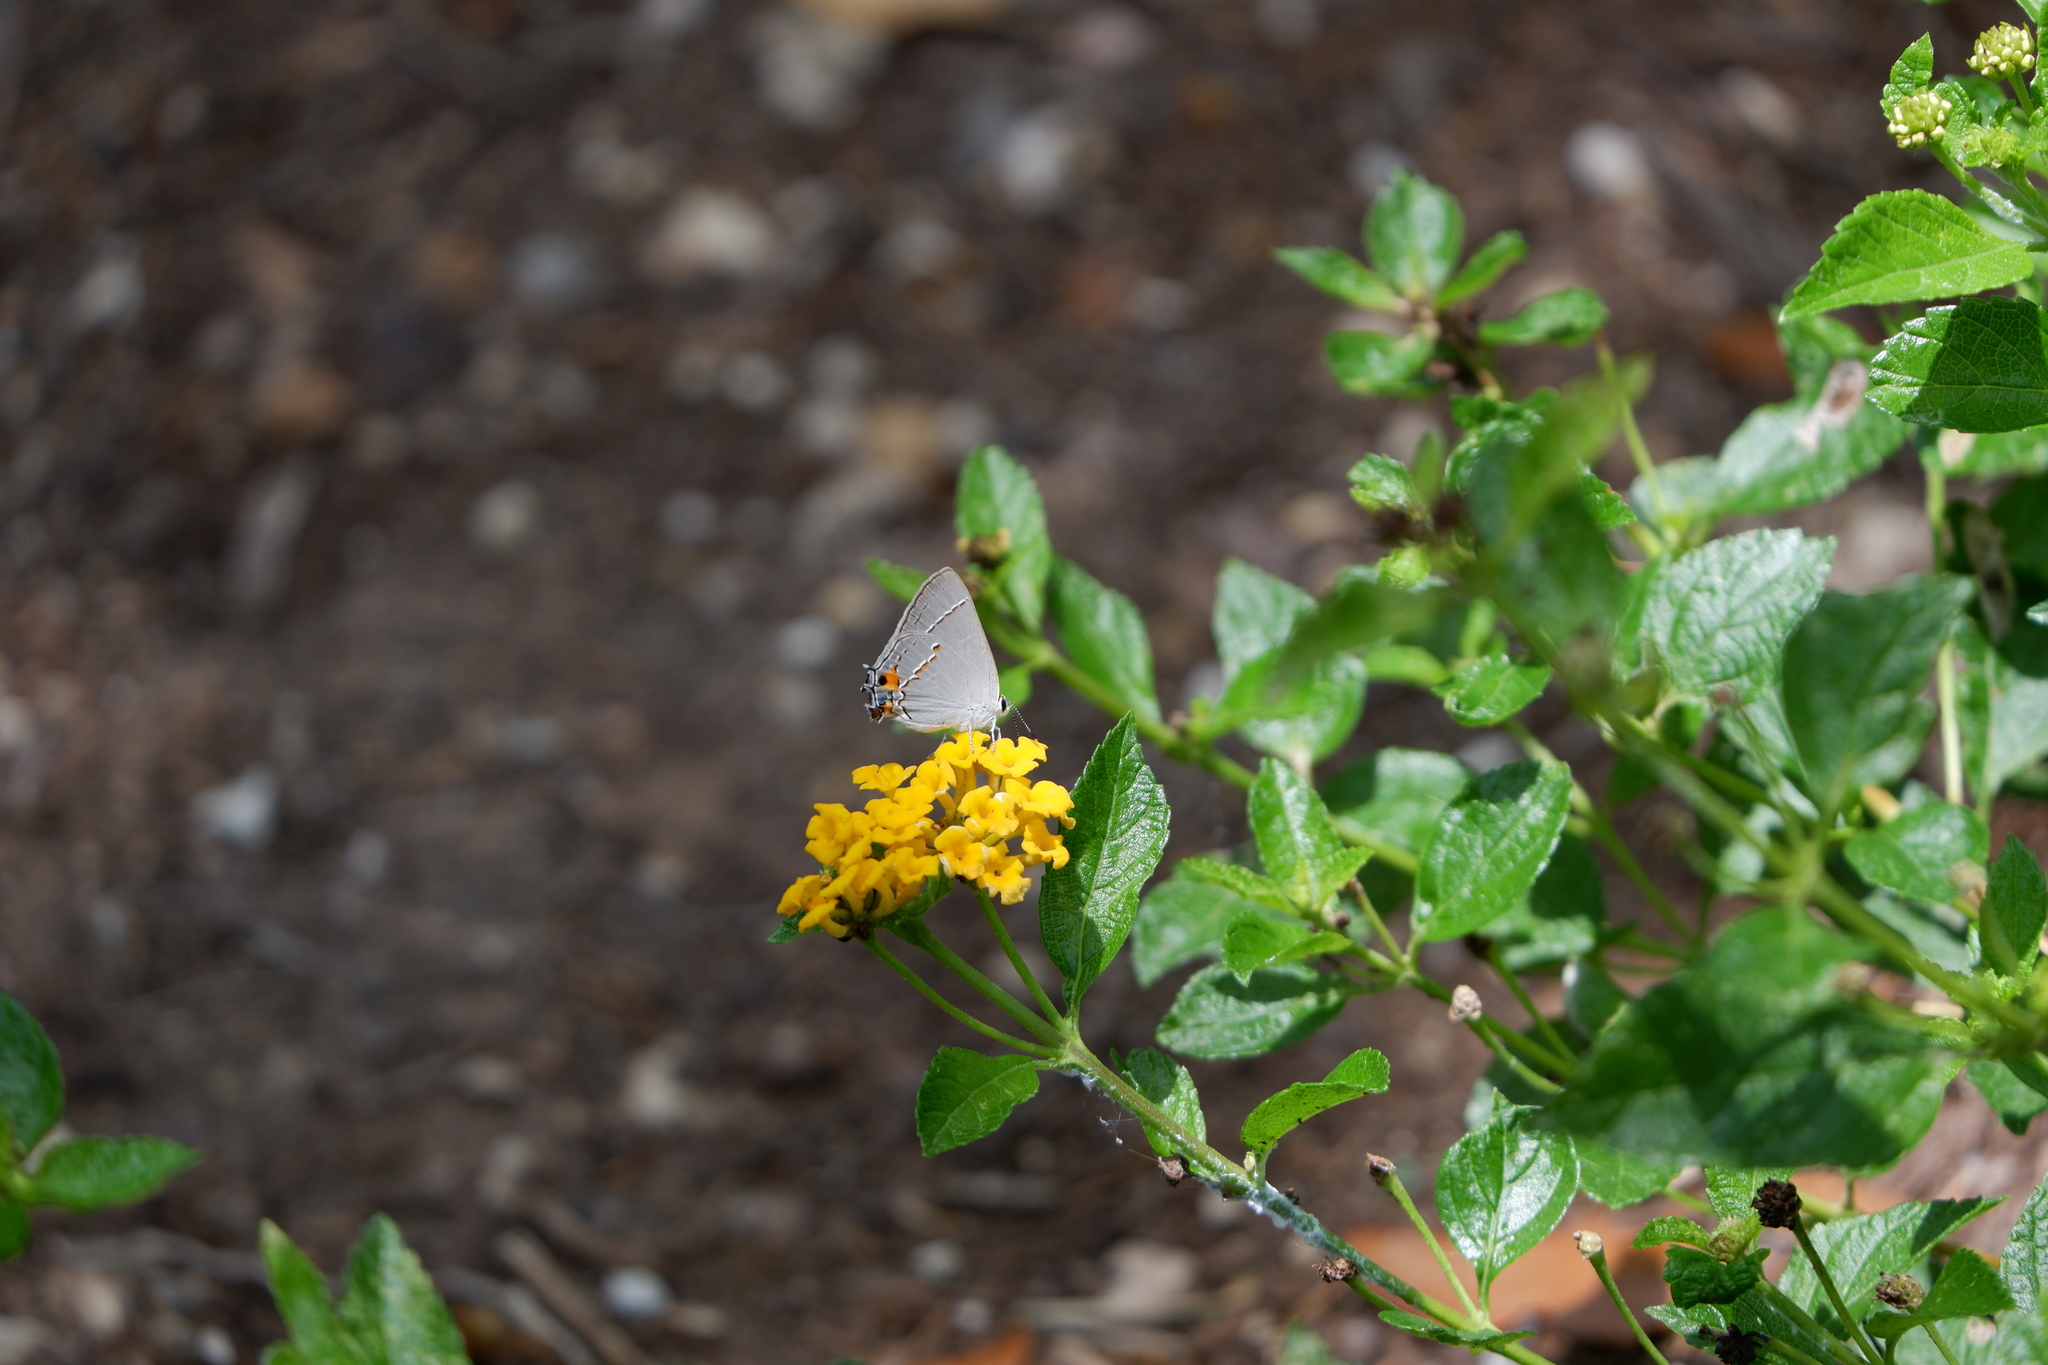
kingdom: Animalia
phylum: Arthropoda
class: Insecta
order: Lepidoptera
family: Lycaenidae
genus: Strymon
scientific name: Strymon melinus
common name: Gray hairstreak
